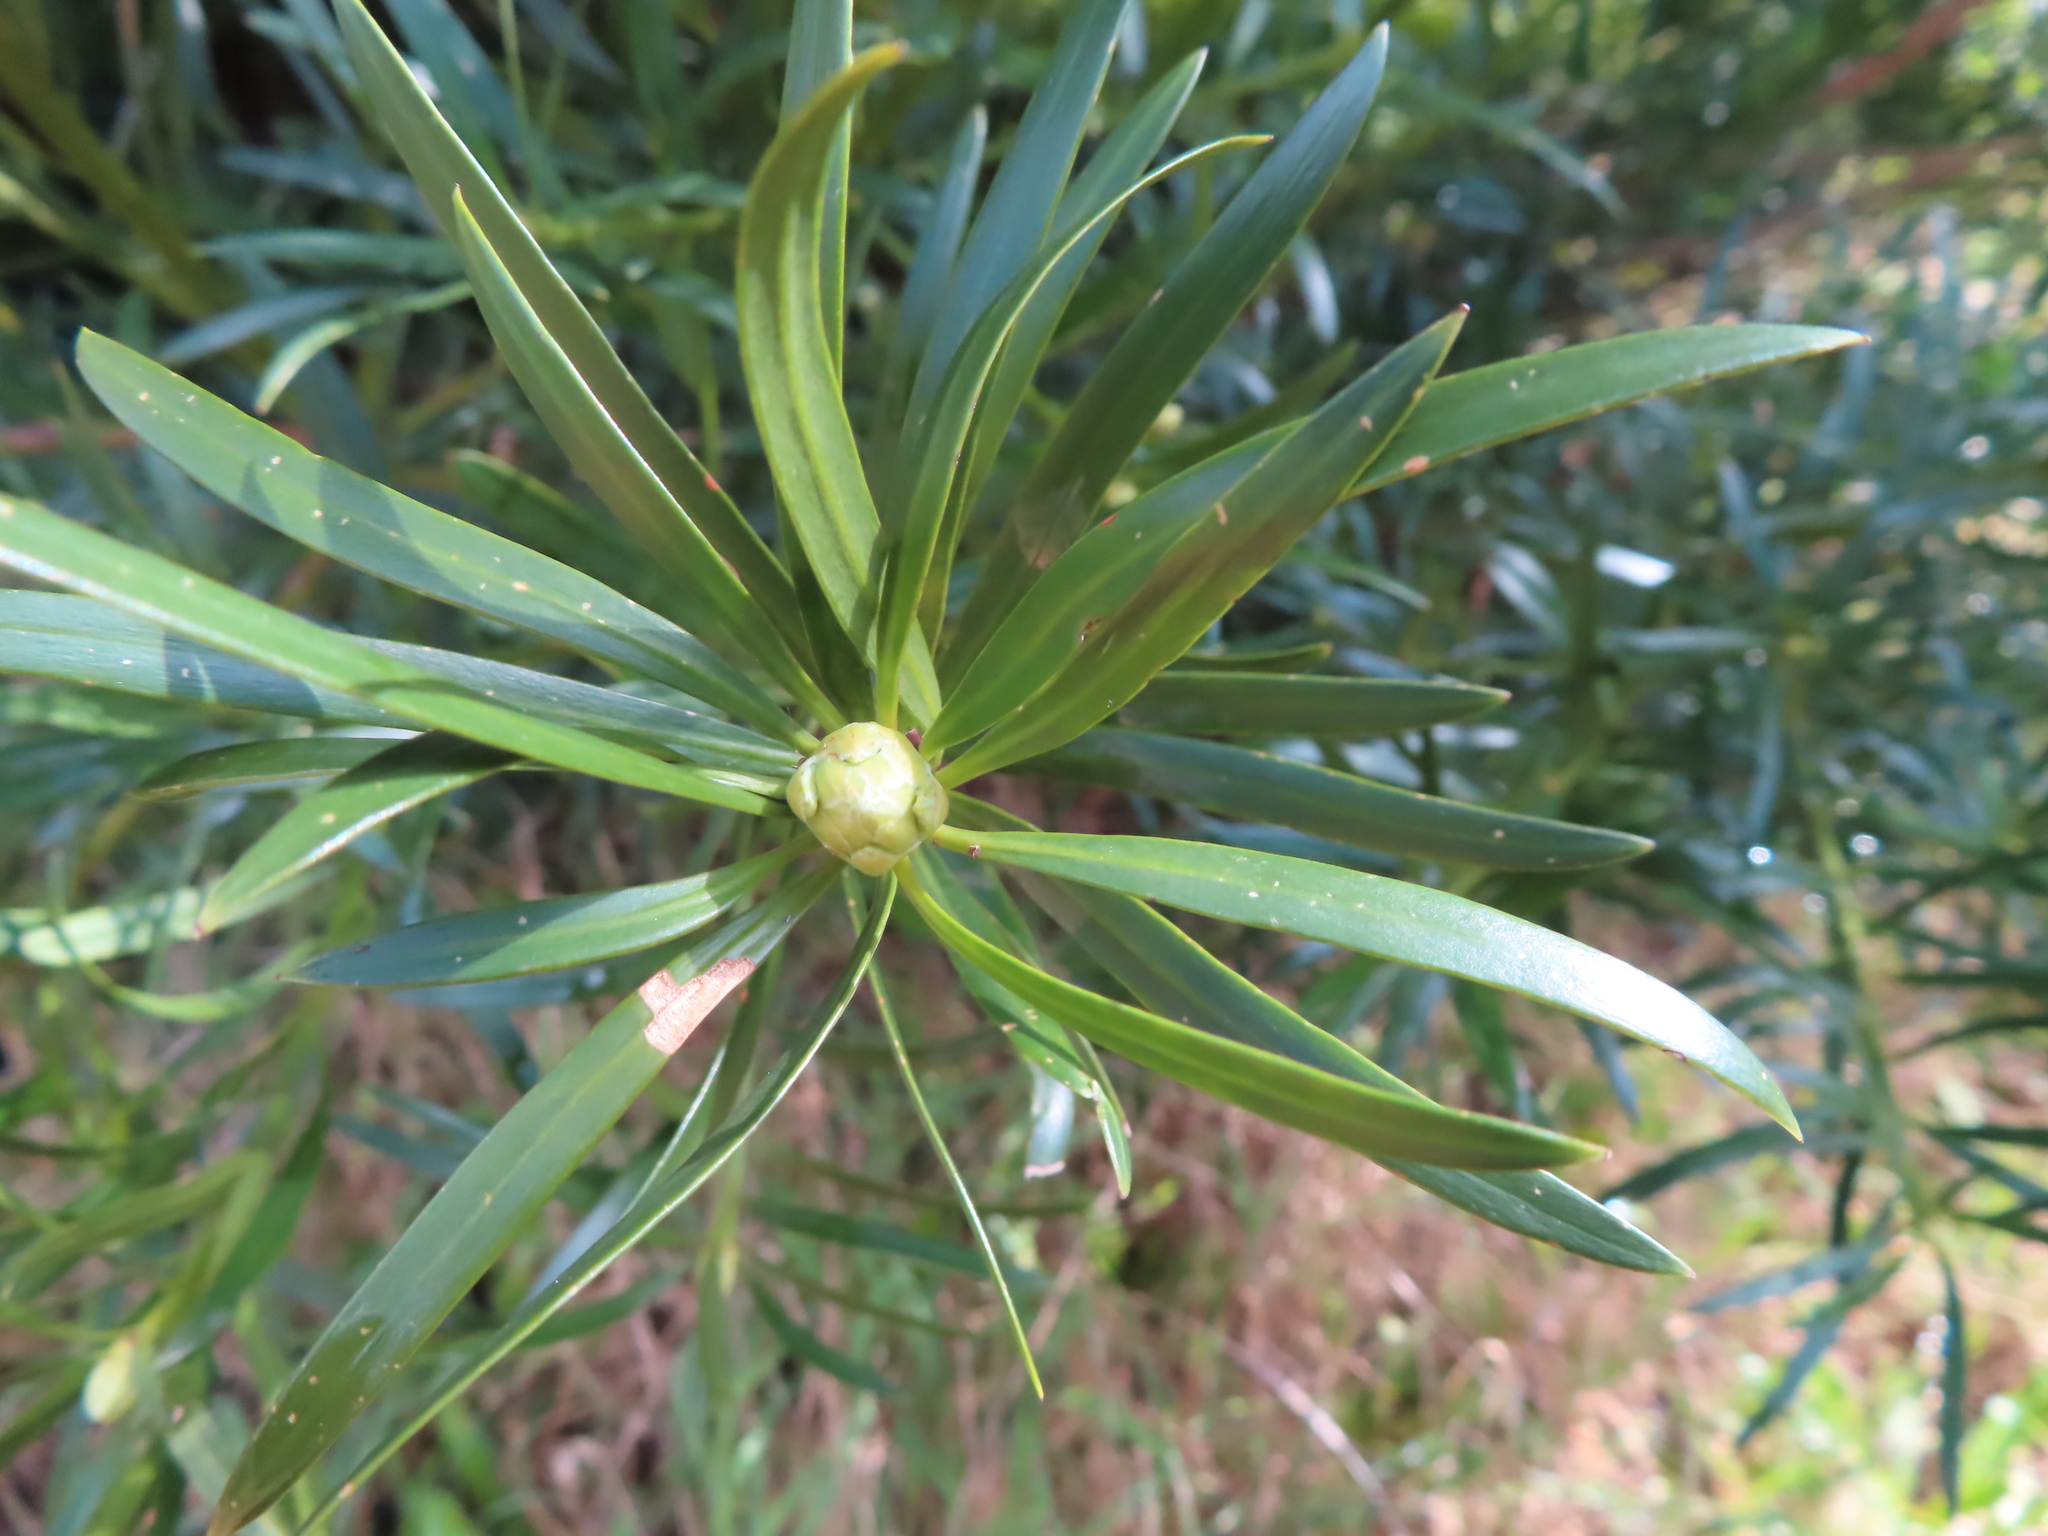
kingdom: Plantae
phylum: Tracheophyta
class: Pinopsida
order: Pinales
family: Podocarpaceae
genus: Afrocarpus
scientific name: Afrocarpus falcatus
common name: Bastard yellowwood
